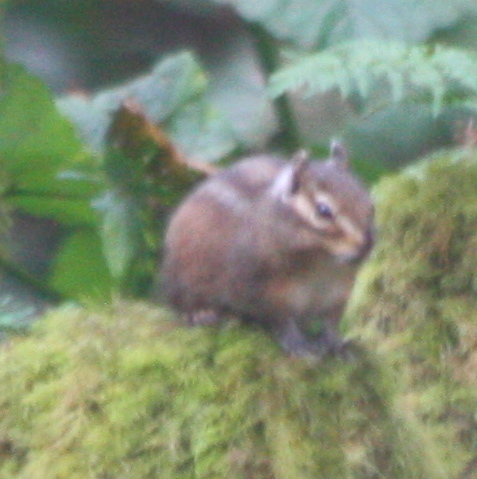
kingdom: Animalia
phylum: Chordata
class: Mammalia
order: Rodentia
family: Sciuridae
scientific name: Sciuridae
